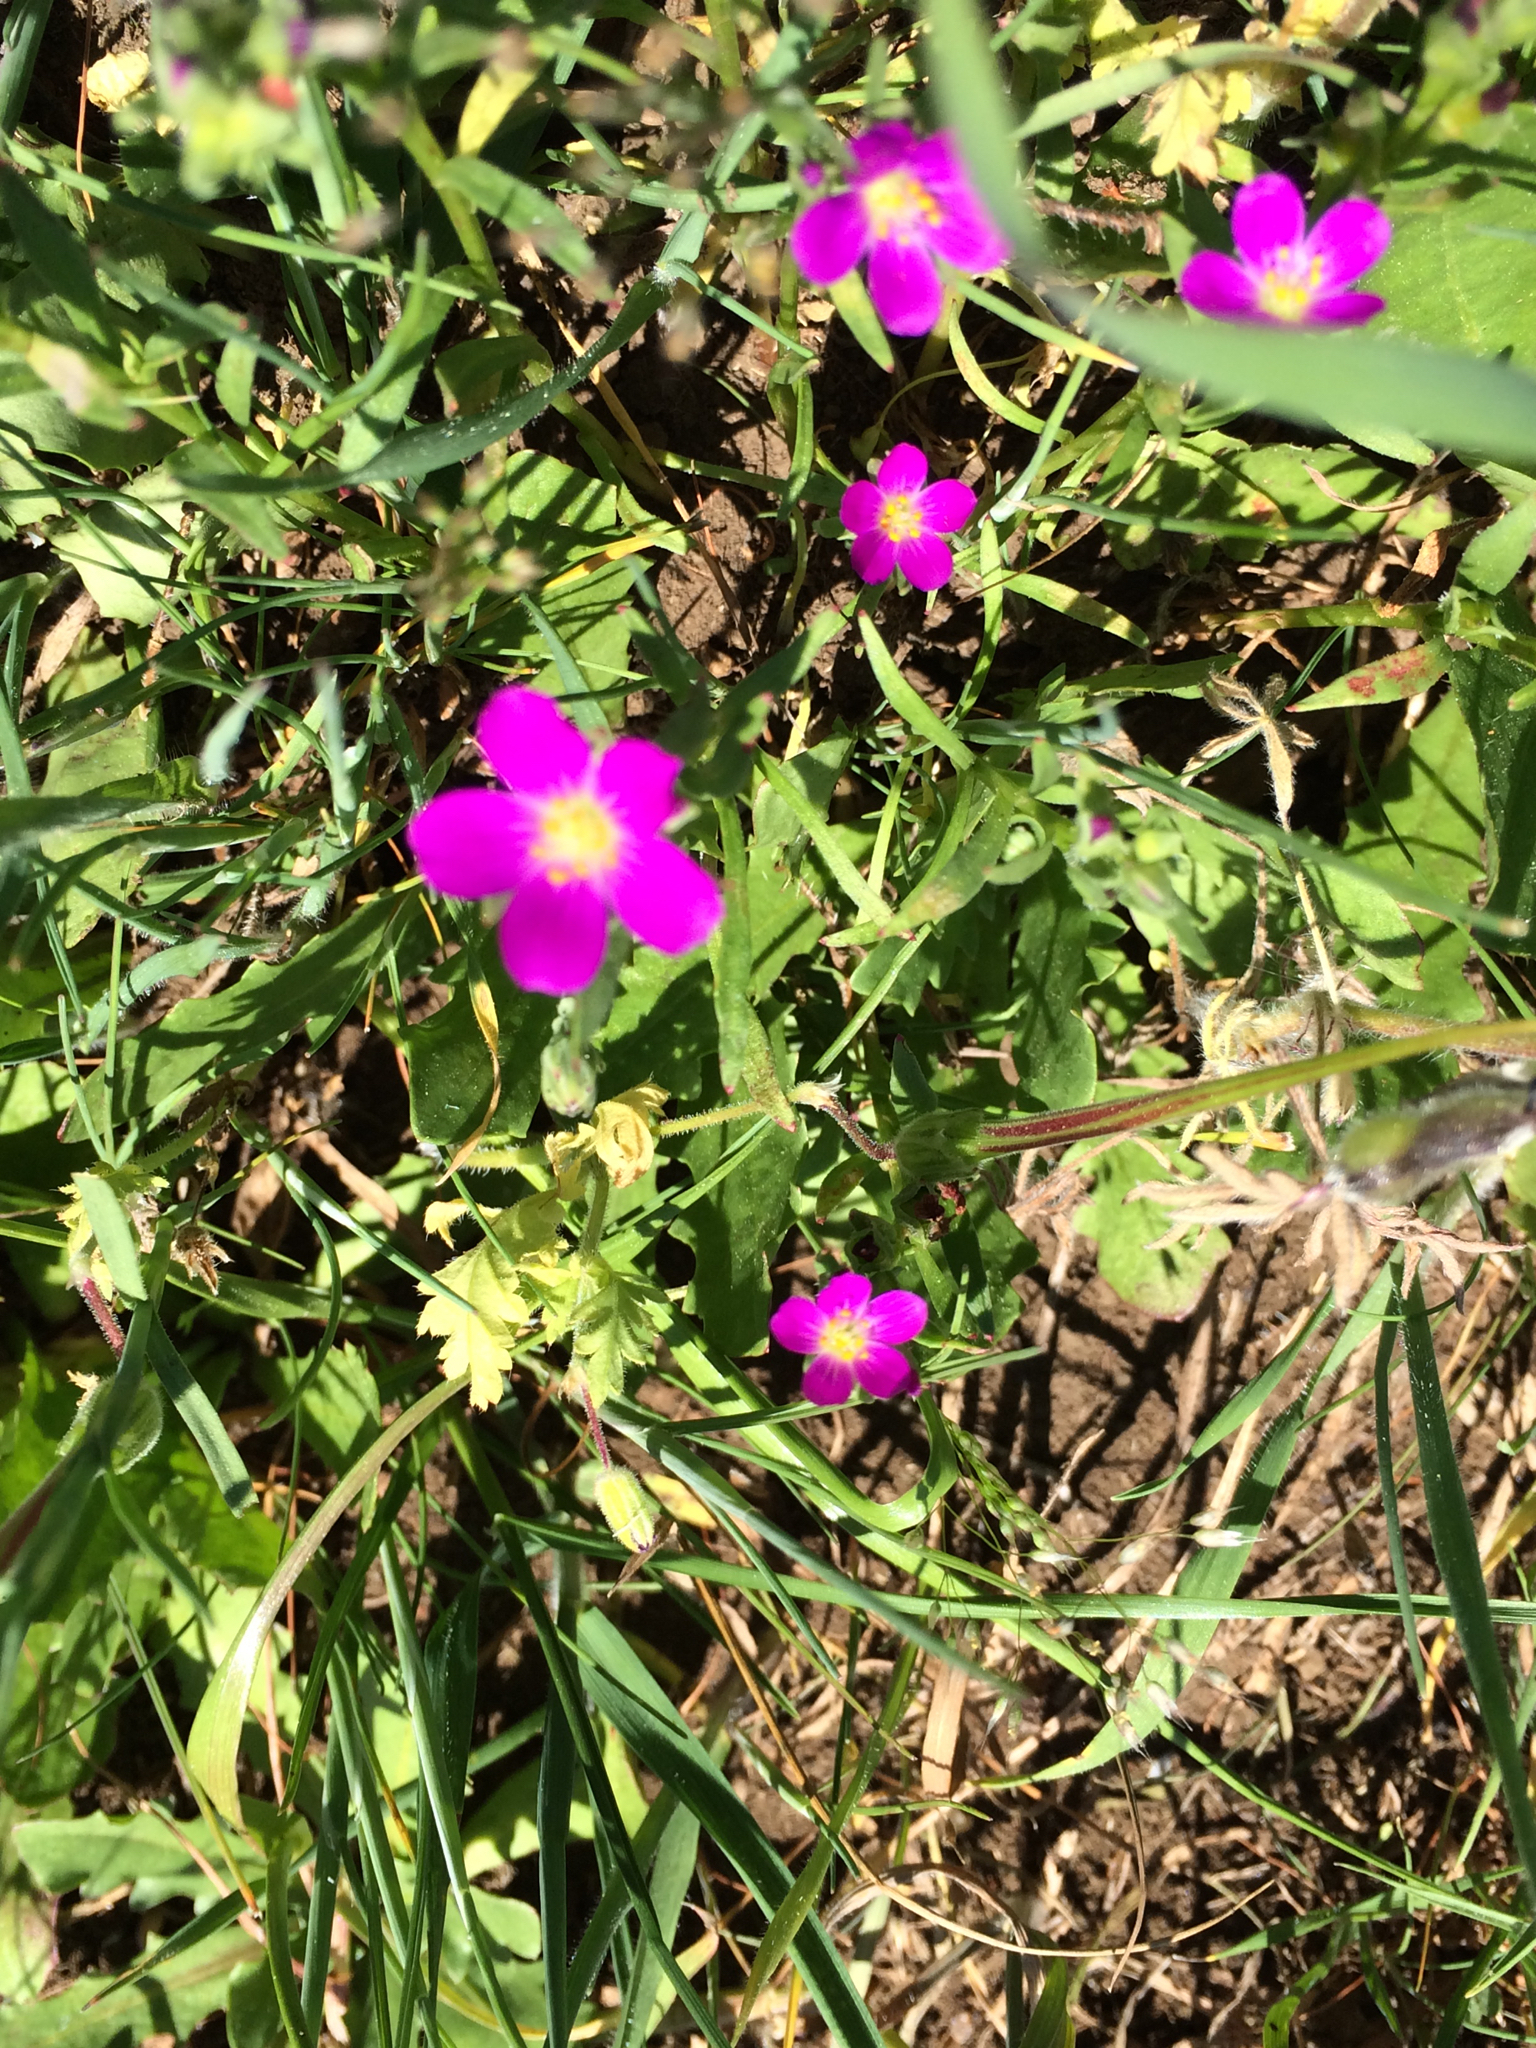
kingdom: Plantae
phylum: Tracheophyta
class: Magnoliopsida
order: Caryophyllales
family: Montiaceae
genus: Calandrinia
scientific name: Calandrinia menziesii
